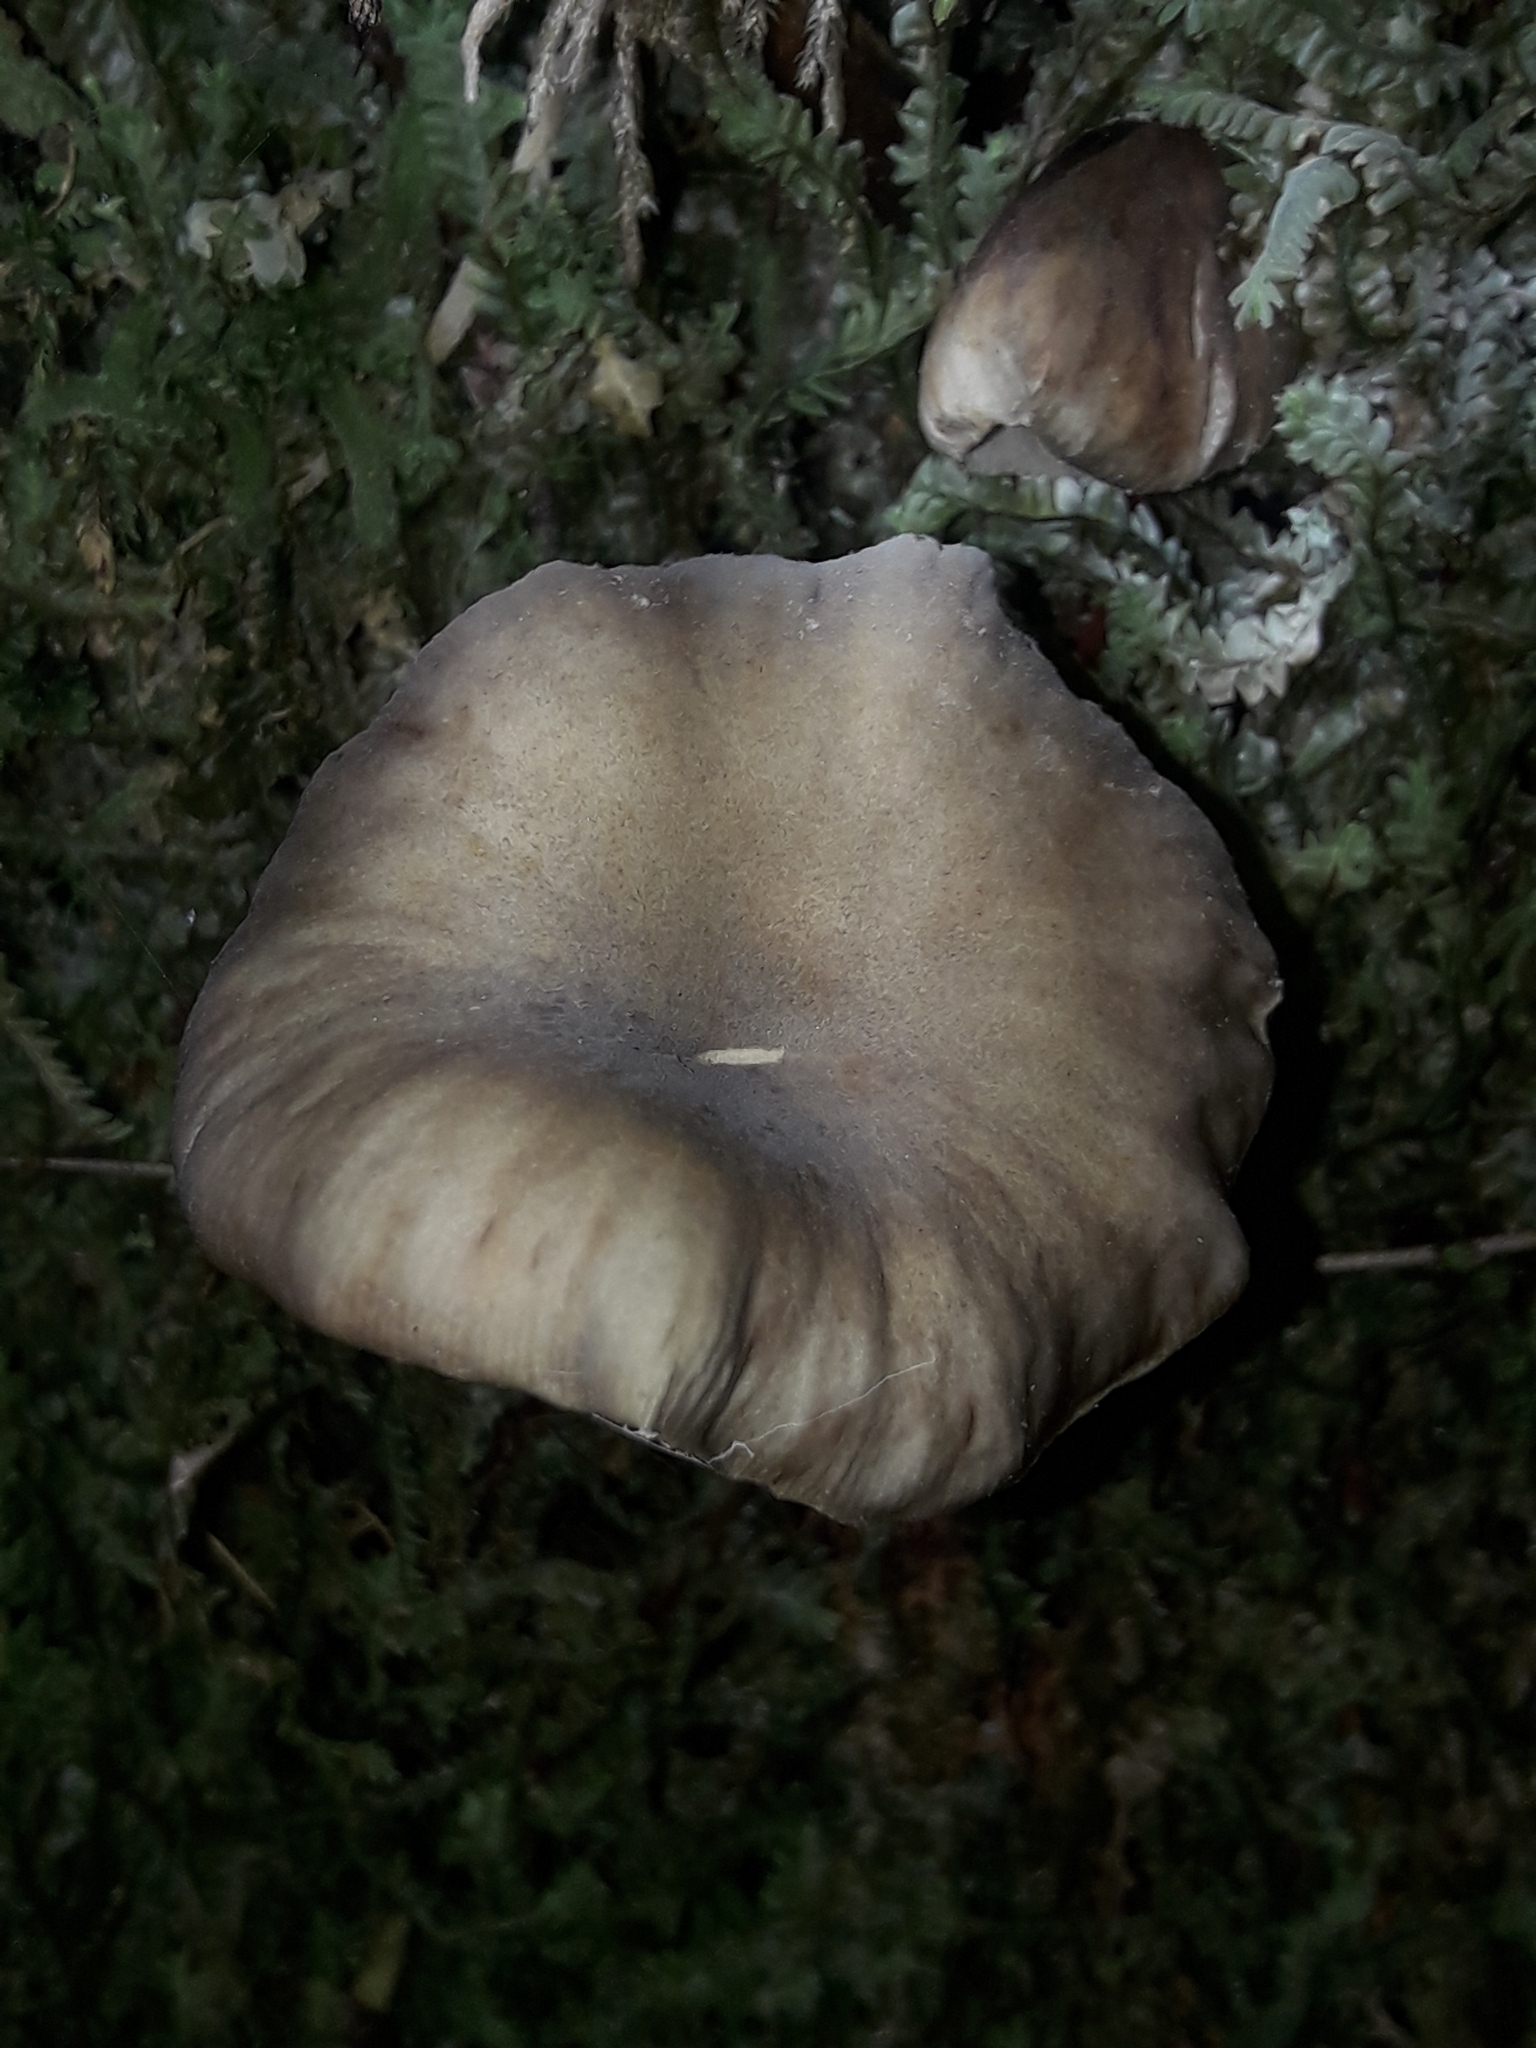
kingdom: Fungi
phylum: Basidiomycota
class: Agaricomycetes
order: Agaricales
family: Physalacriaceae
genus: Armillaria
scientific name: Armillaria novae-zelandiae
